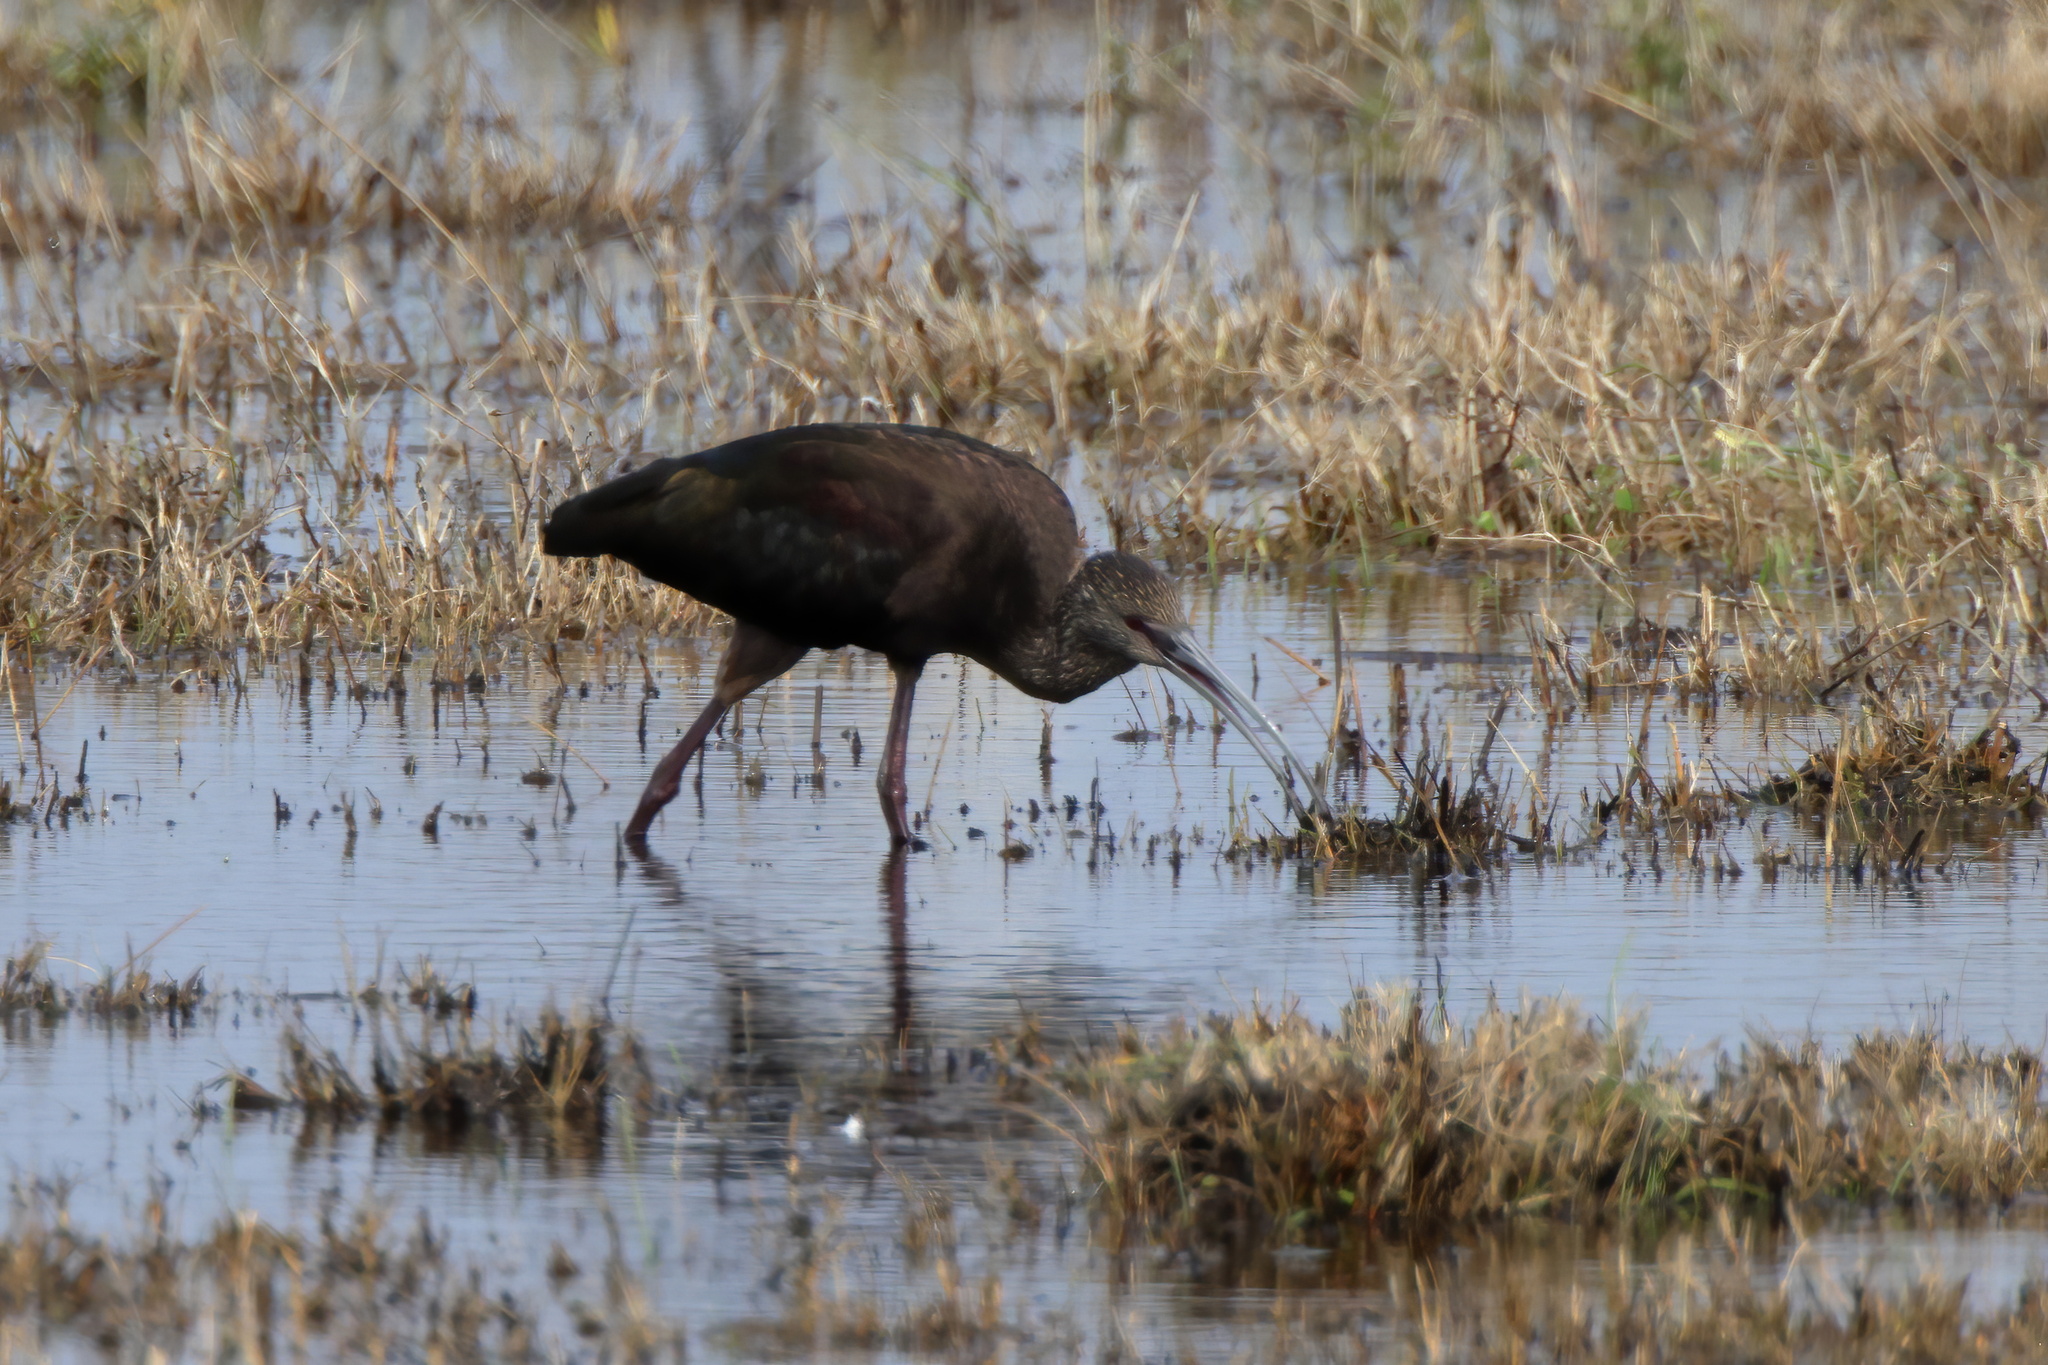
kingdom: Animalia
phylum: Chordata
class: Aves
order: Pelecaniformes
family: Threskiornithidae
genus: Plegadis
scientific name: Plegadis chihi
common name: White-faced ibis
